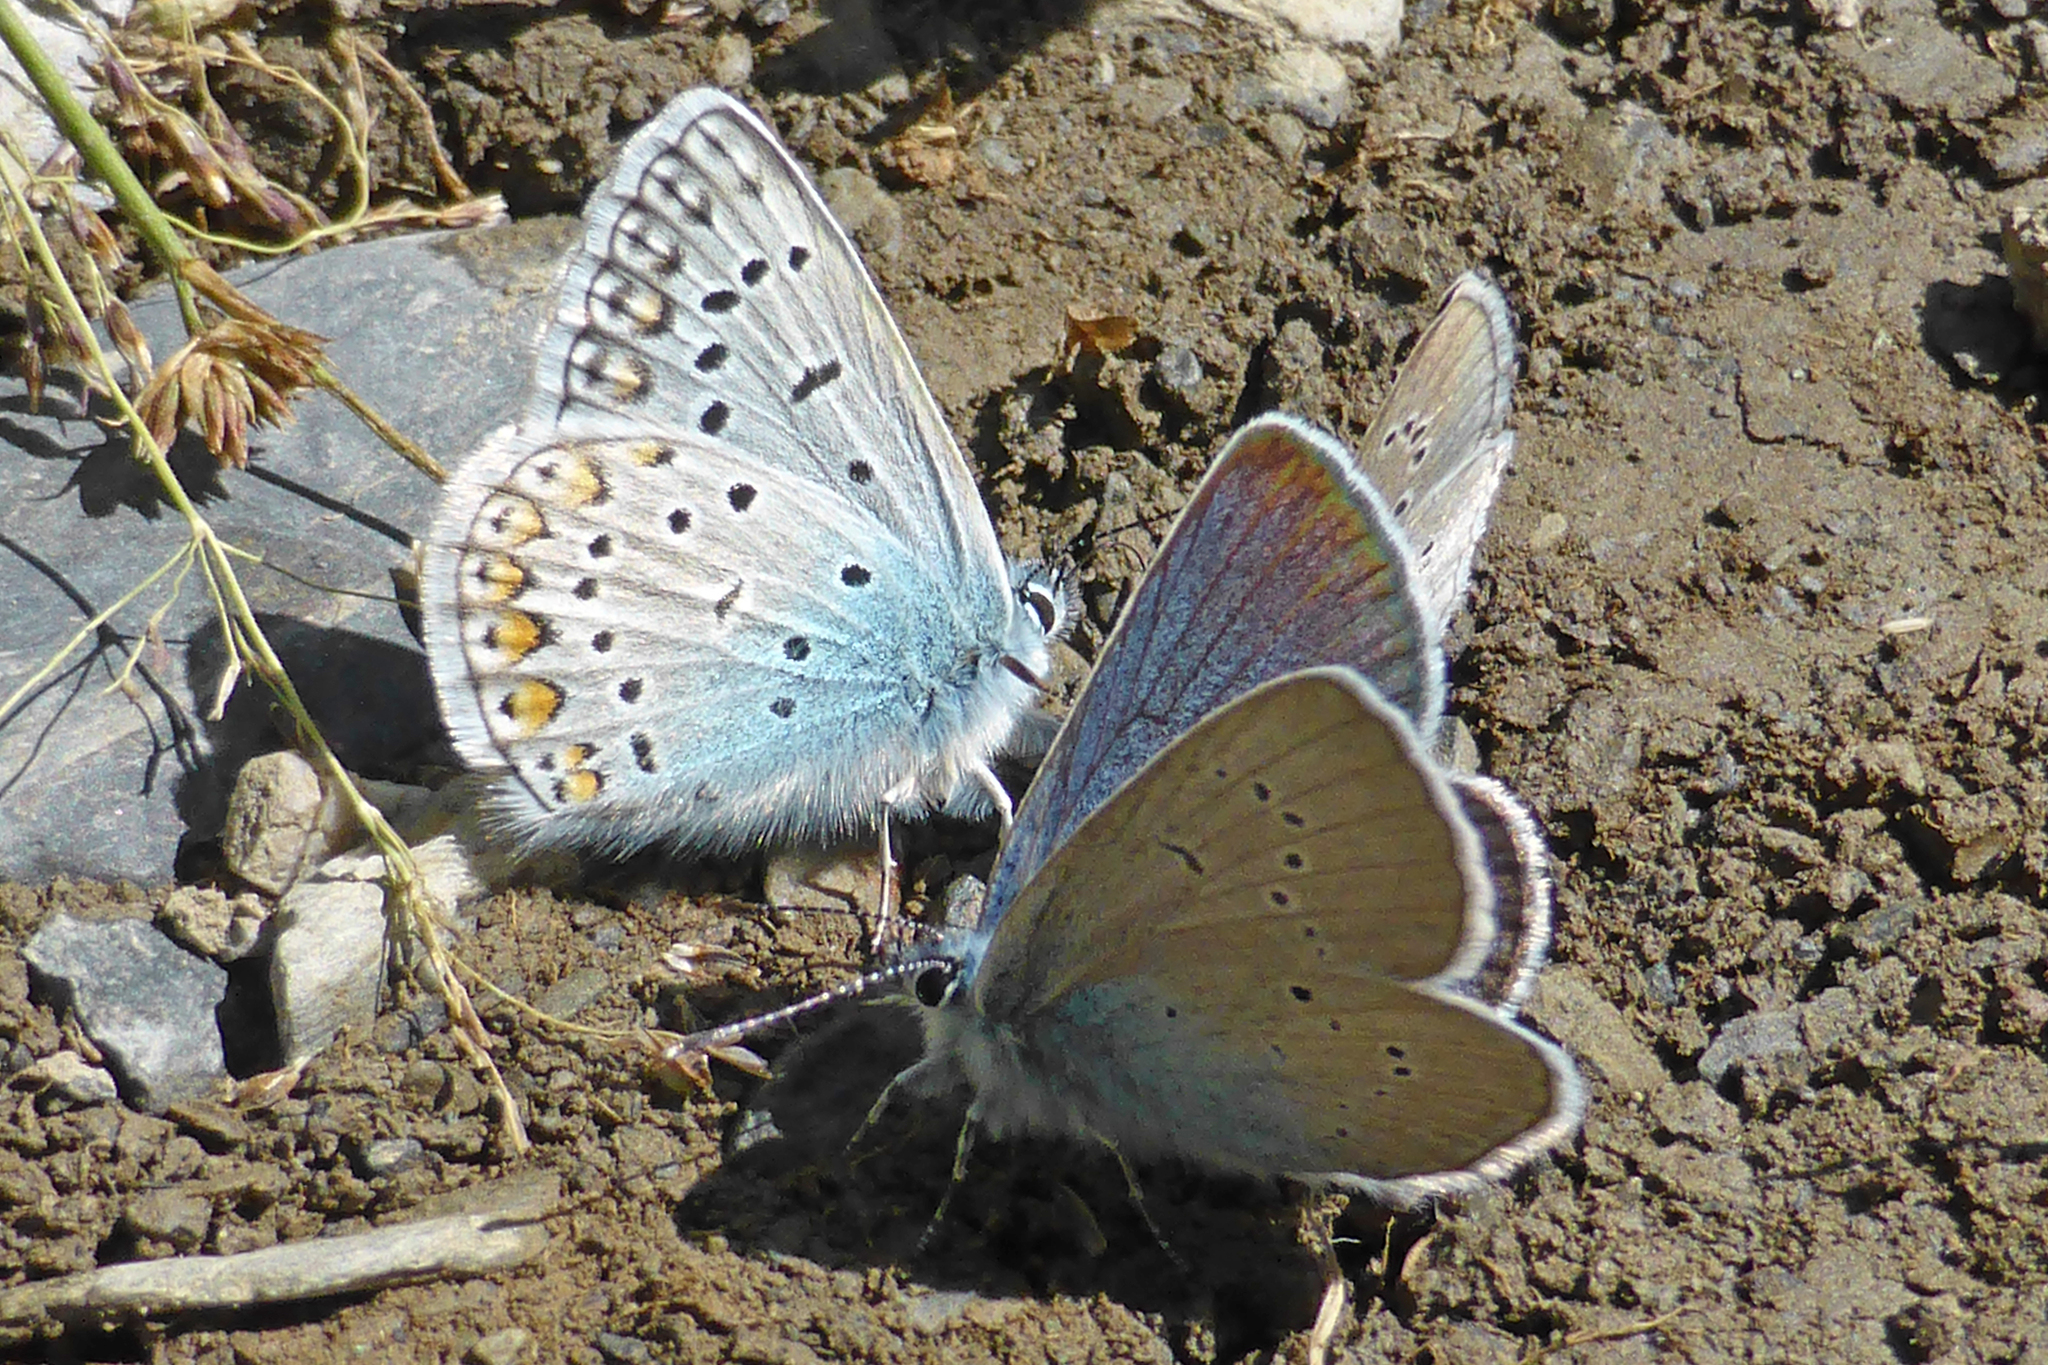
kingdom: Animalia
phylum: Arthropoda
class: Insecta
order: Lepidoptera
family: Lycaenidae
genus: Polyommatus
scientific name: Polyommatus icarus
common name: Common blue
